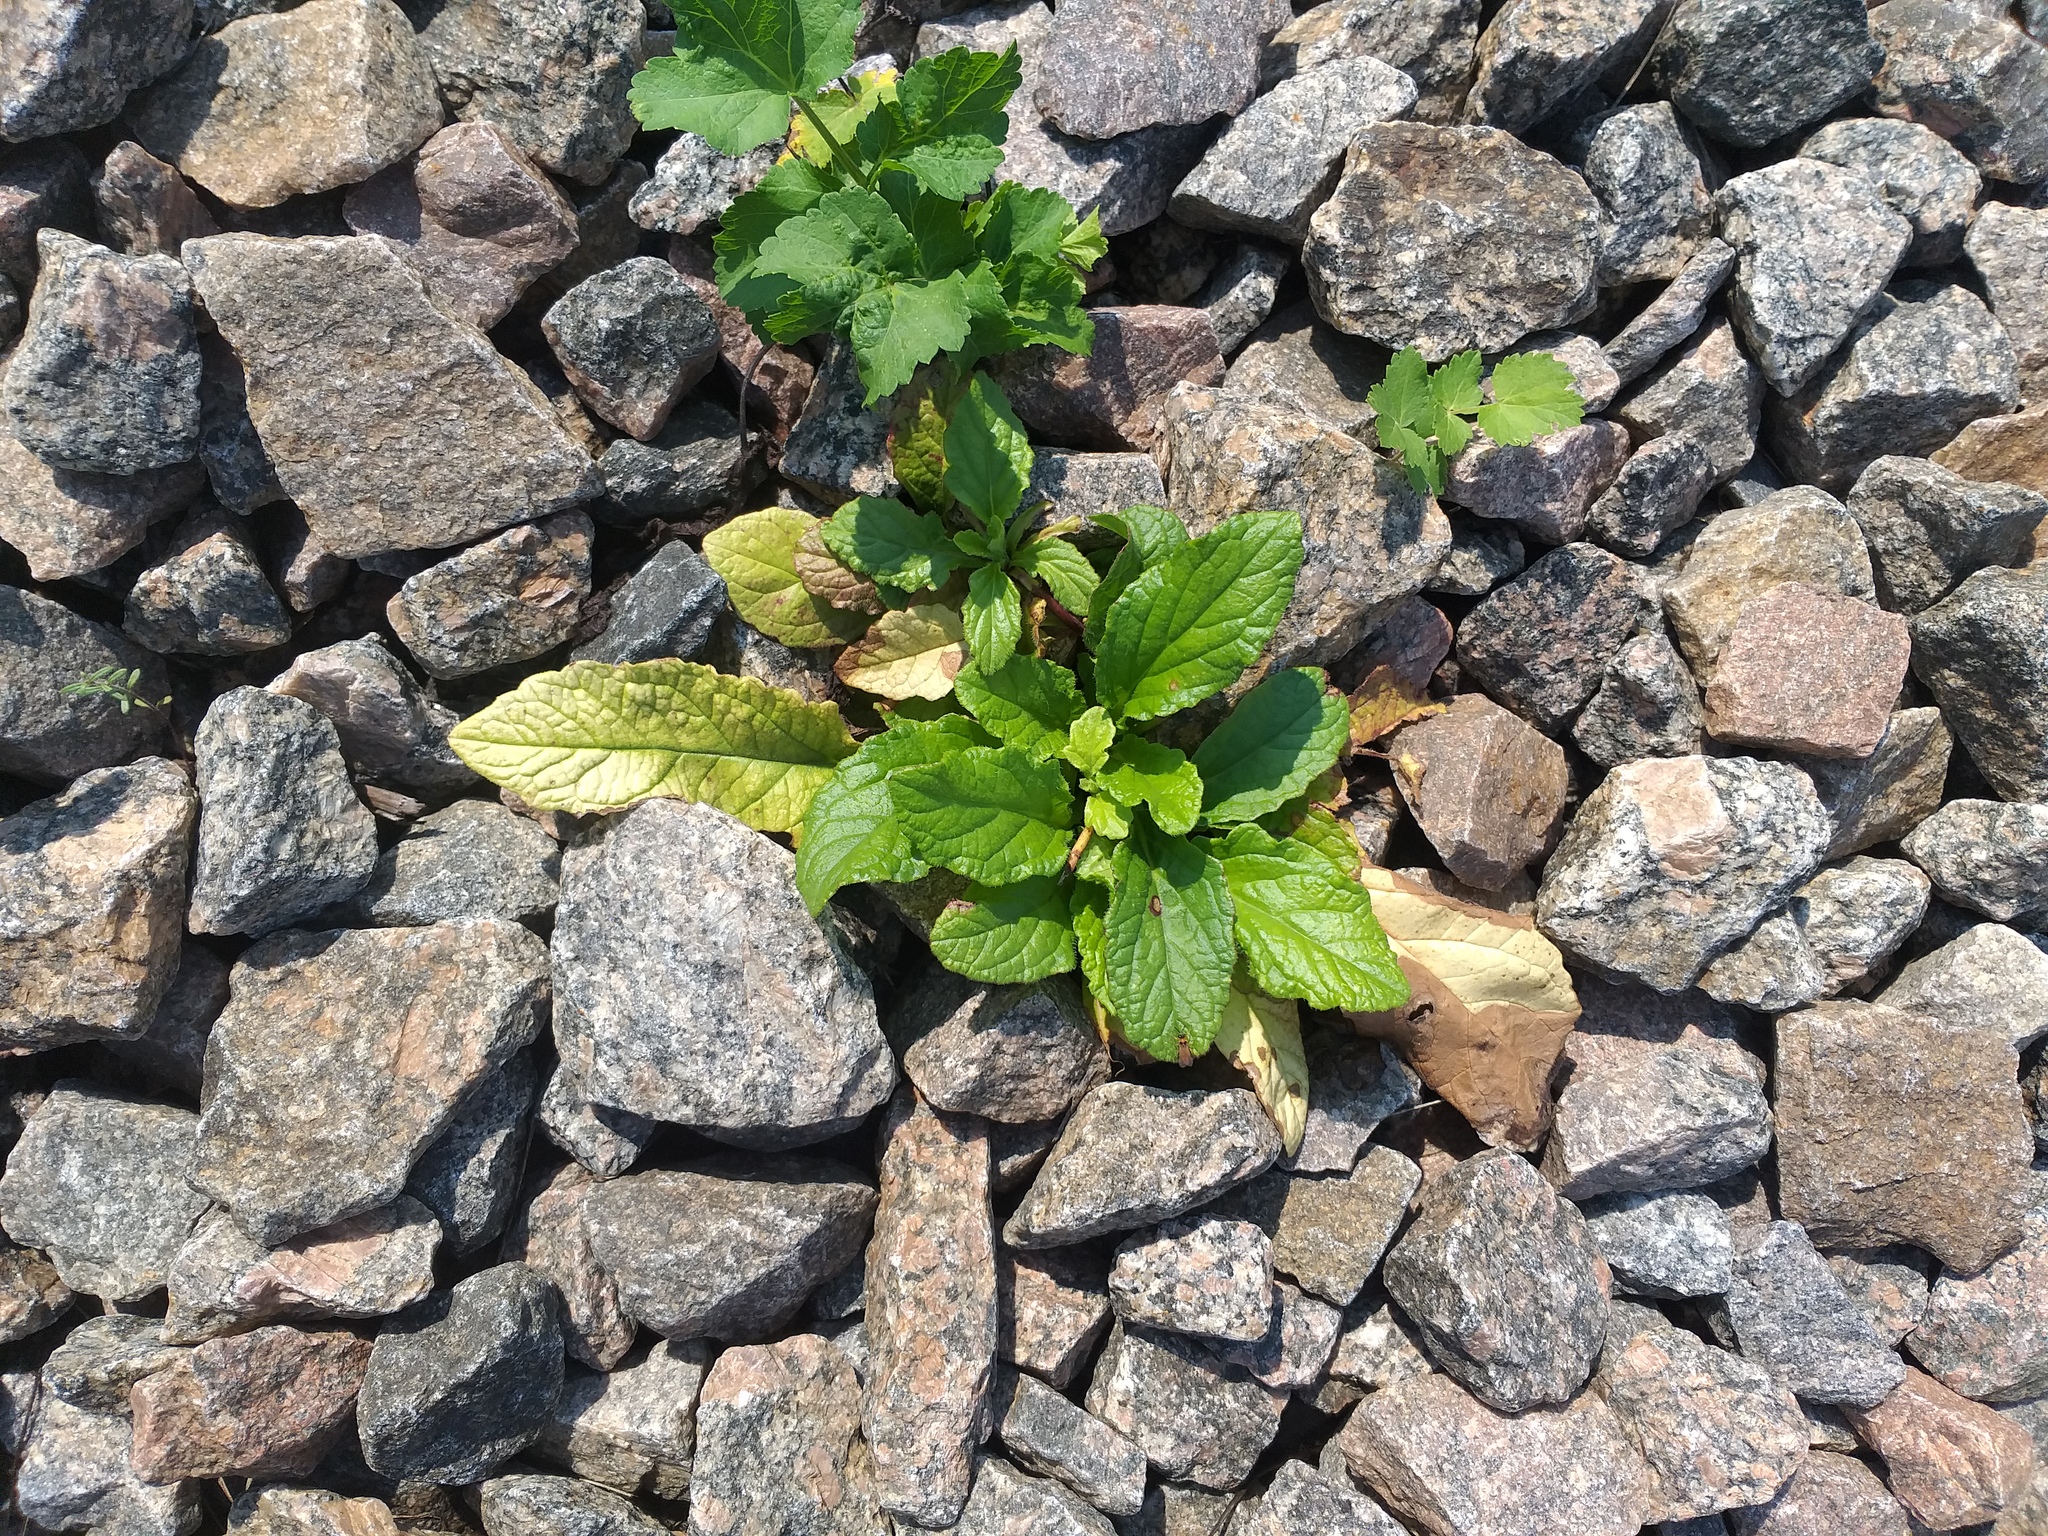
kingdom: Plantae
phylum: Tracheophyta
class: Magnoliopsida
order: Lamiales
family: Lamiaceae
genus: Ajuga
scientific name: Ajuga reptans
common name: Bugle
